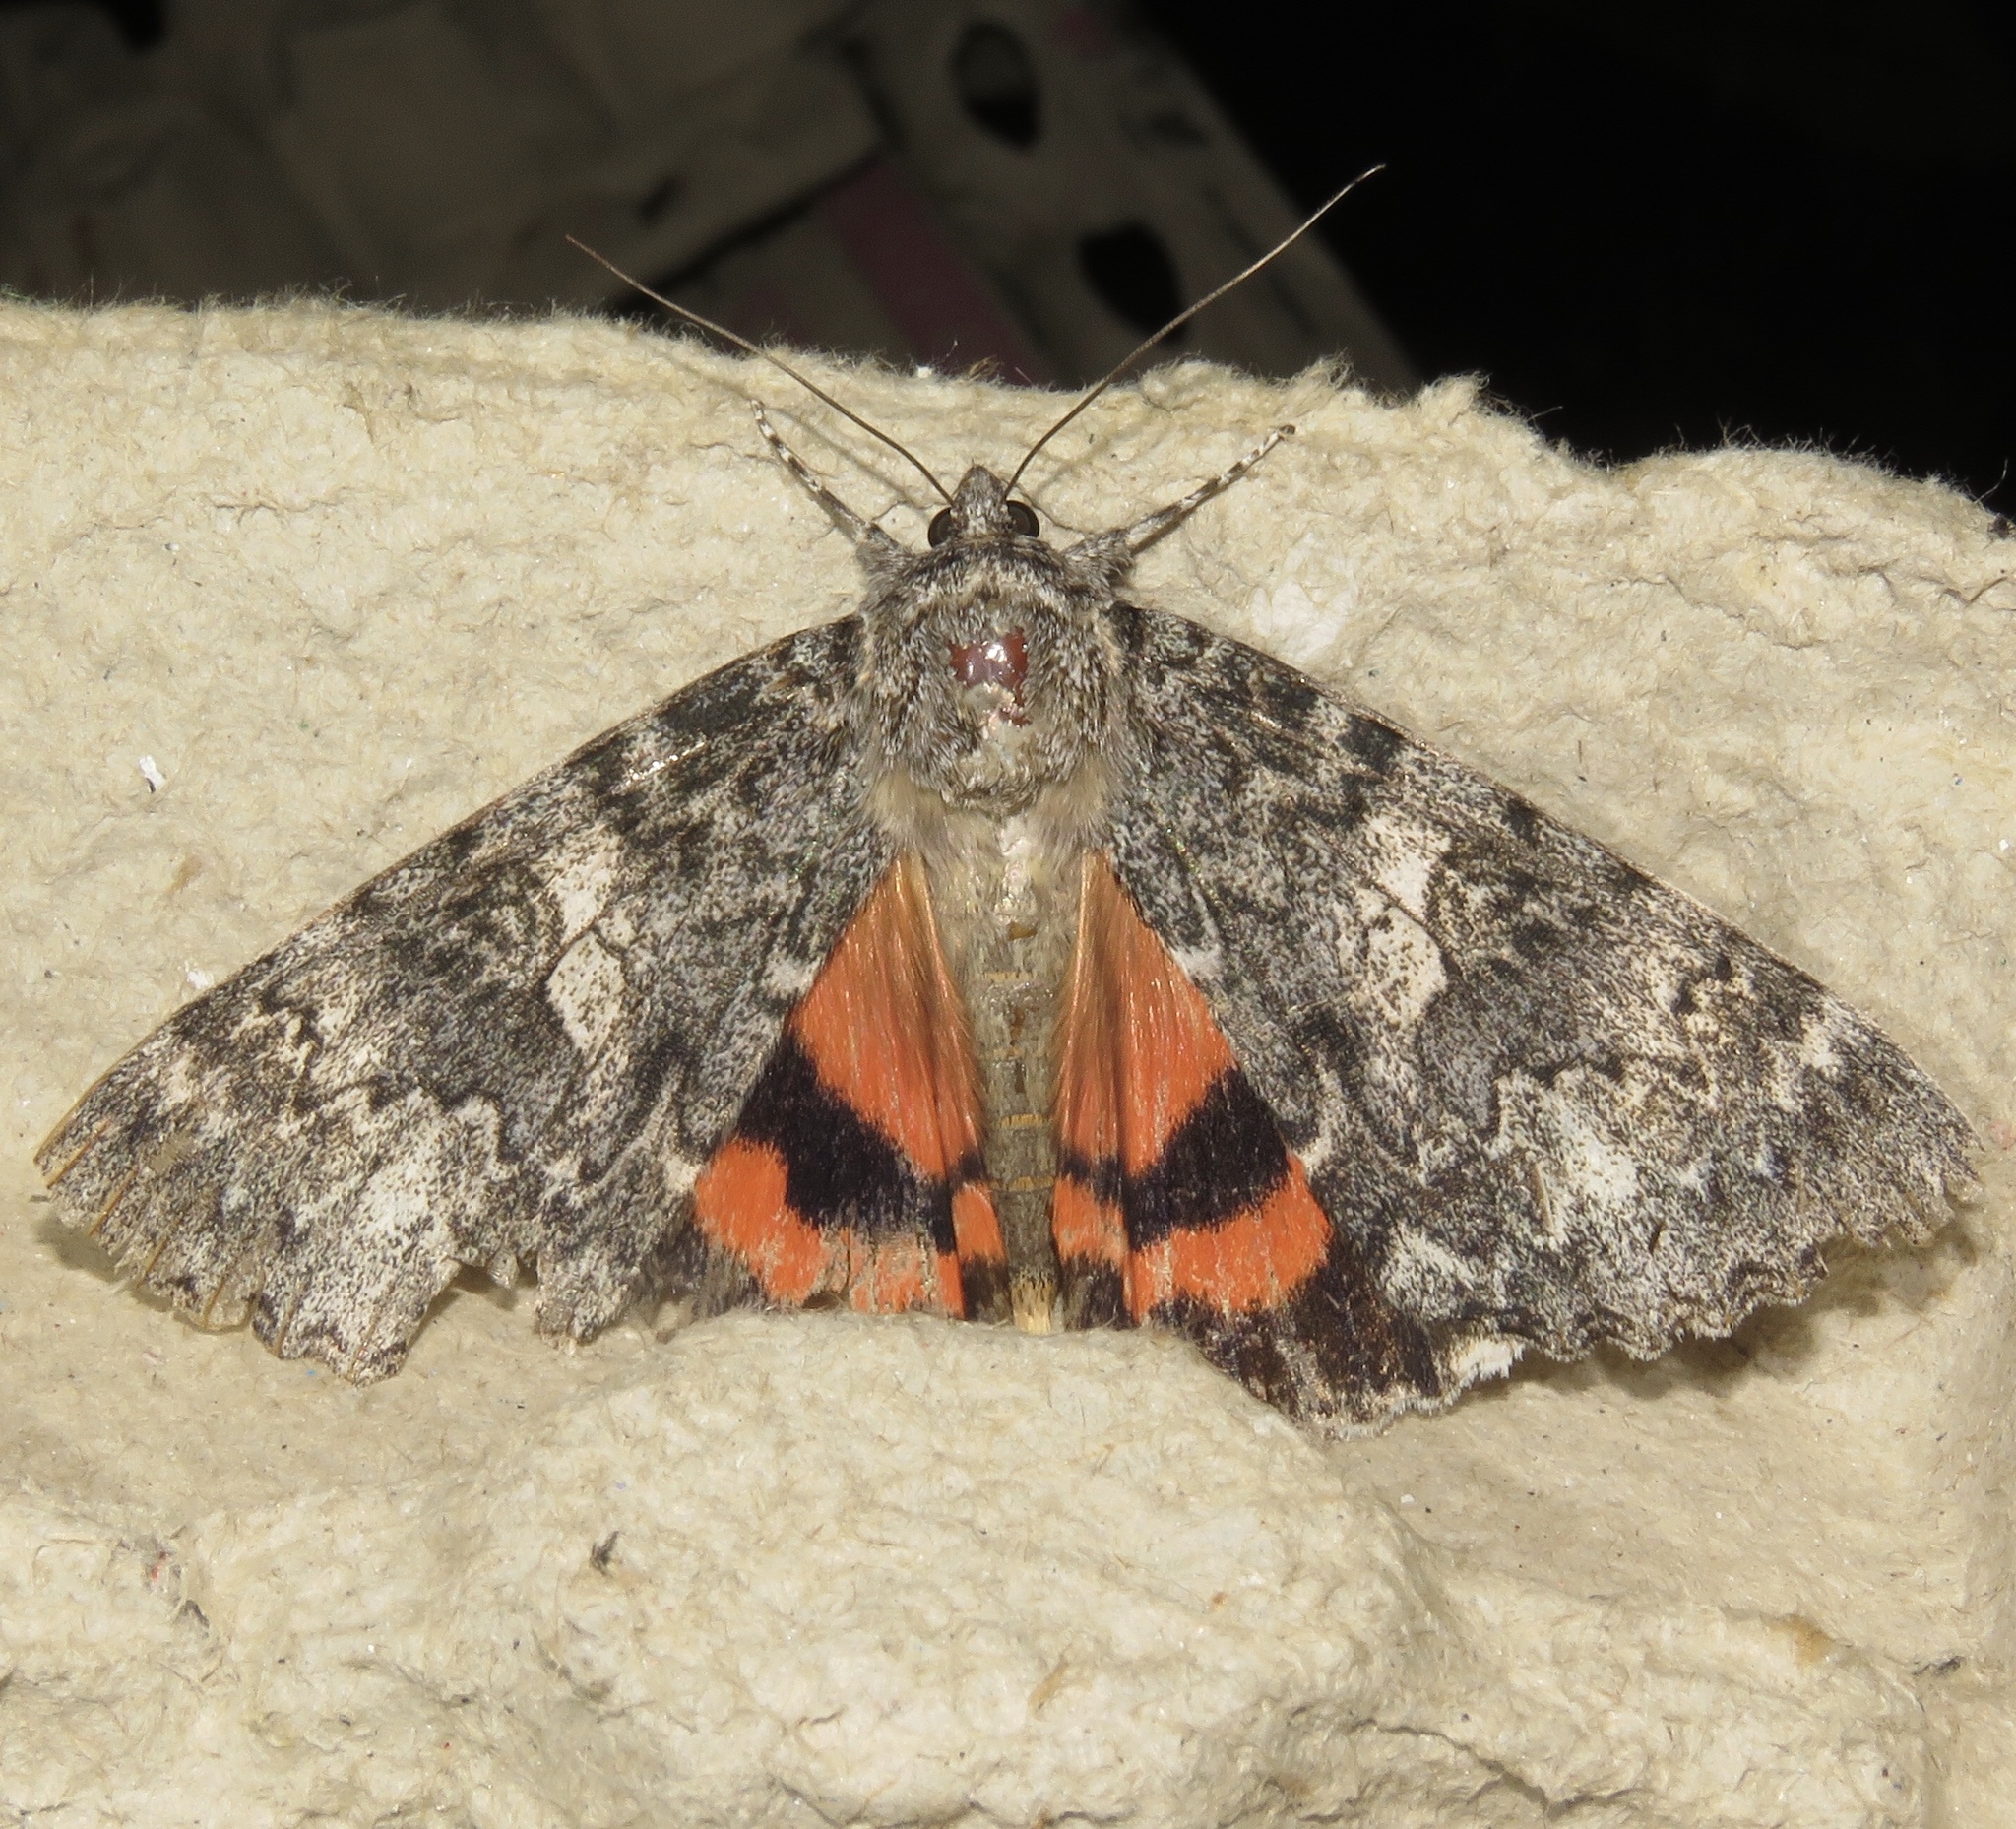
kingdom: Animalia
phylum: Arthropoda
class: Insecta
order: Lepidoptera
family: Erebidae
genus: Catocala
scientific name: Catocala unijuga
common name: Once-married underwing
